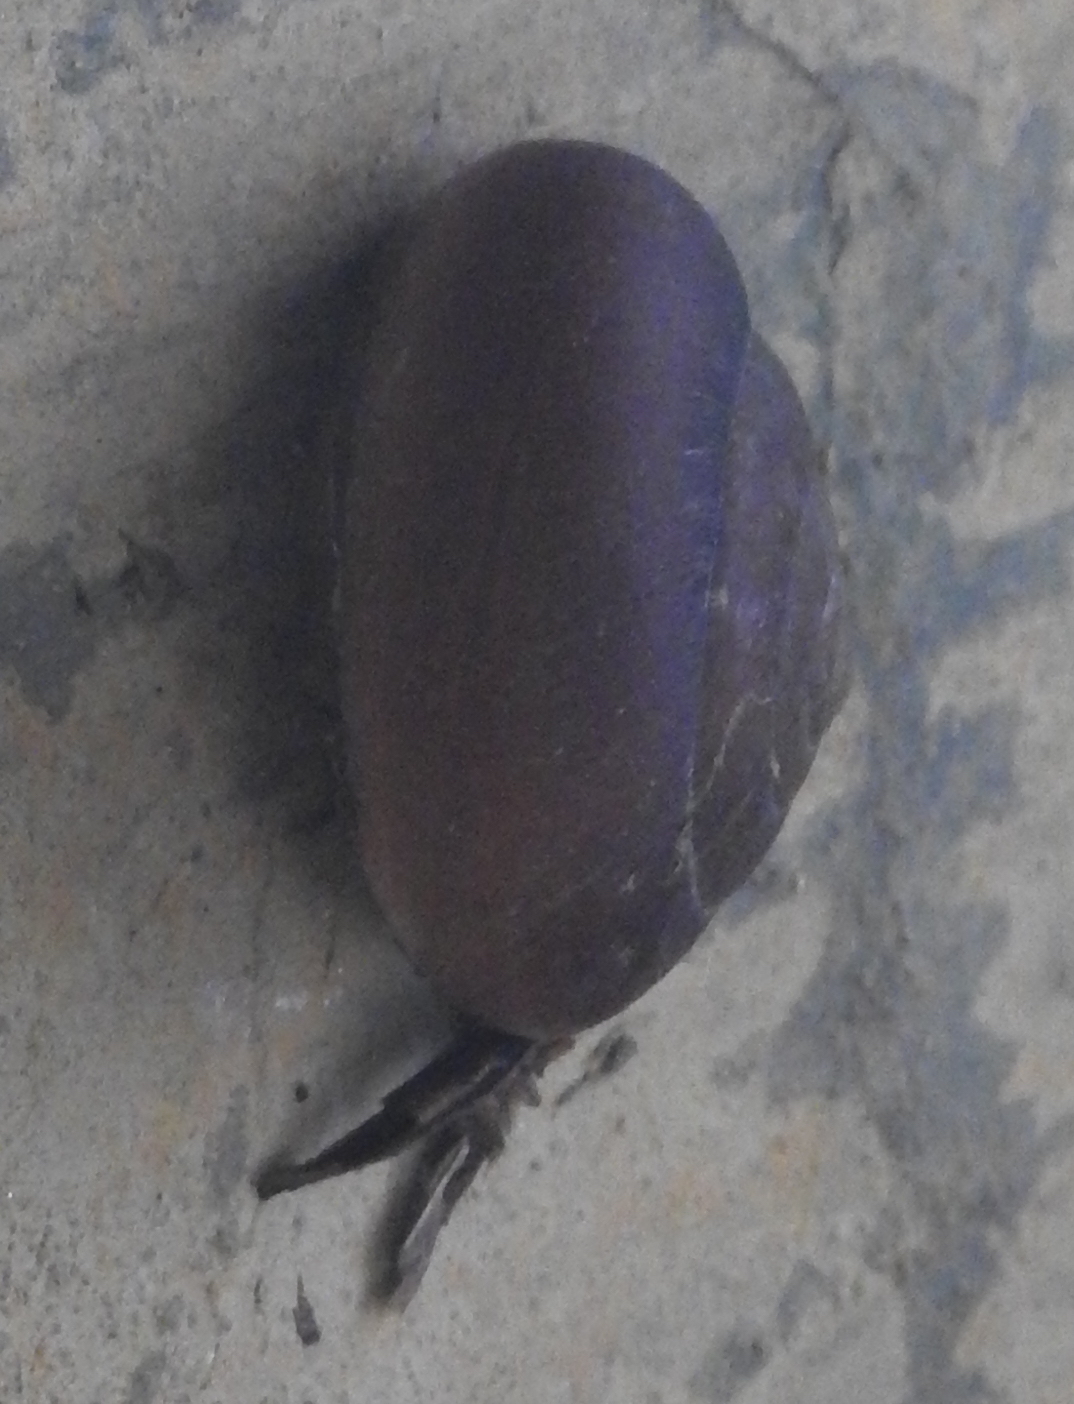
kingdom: Animalia
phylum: Mollusca
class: Gastropoda
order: Stylommatophora
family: Dyakiidae
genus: Quantula
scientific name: Quantula striata
